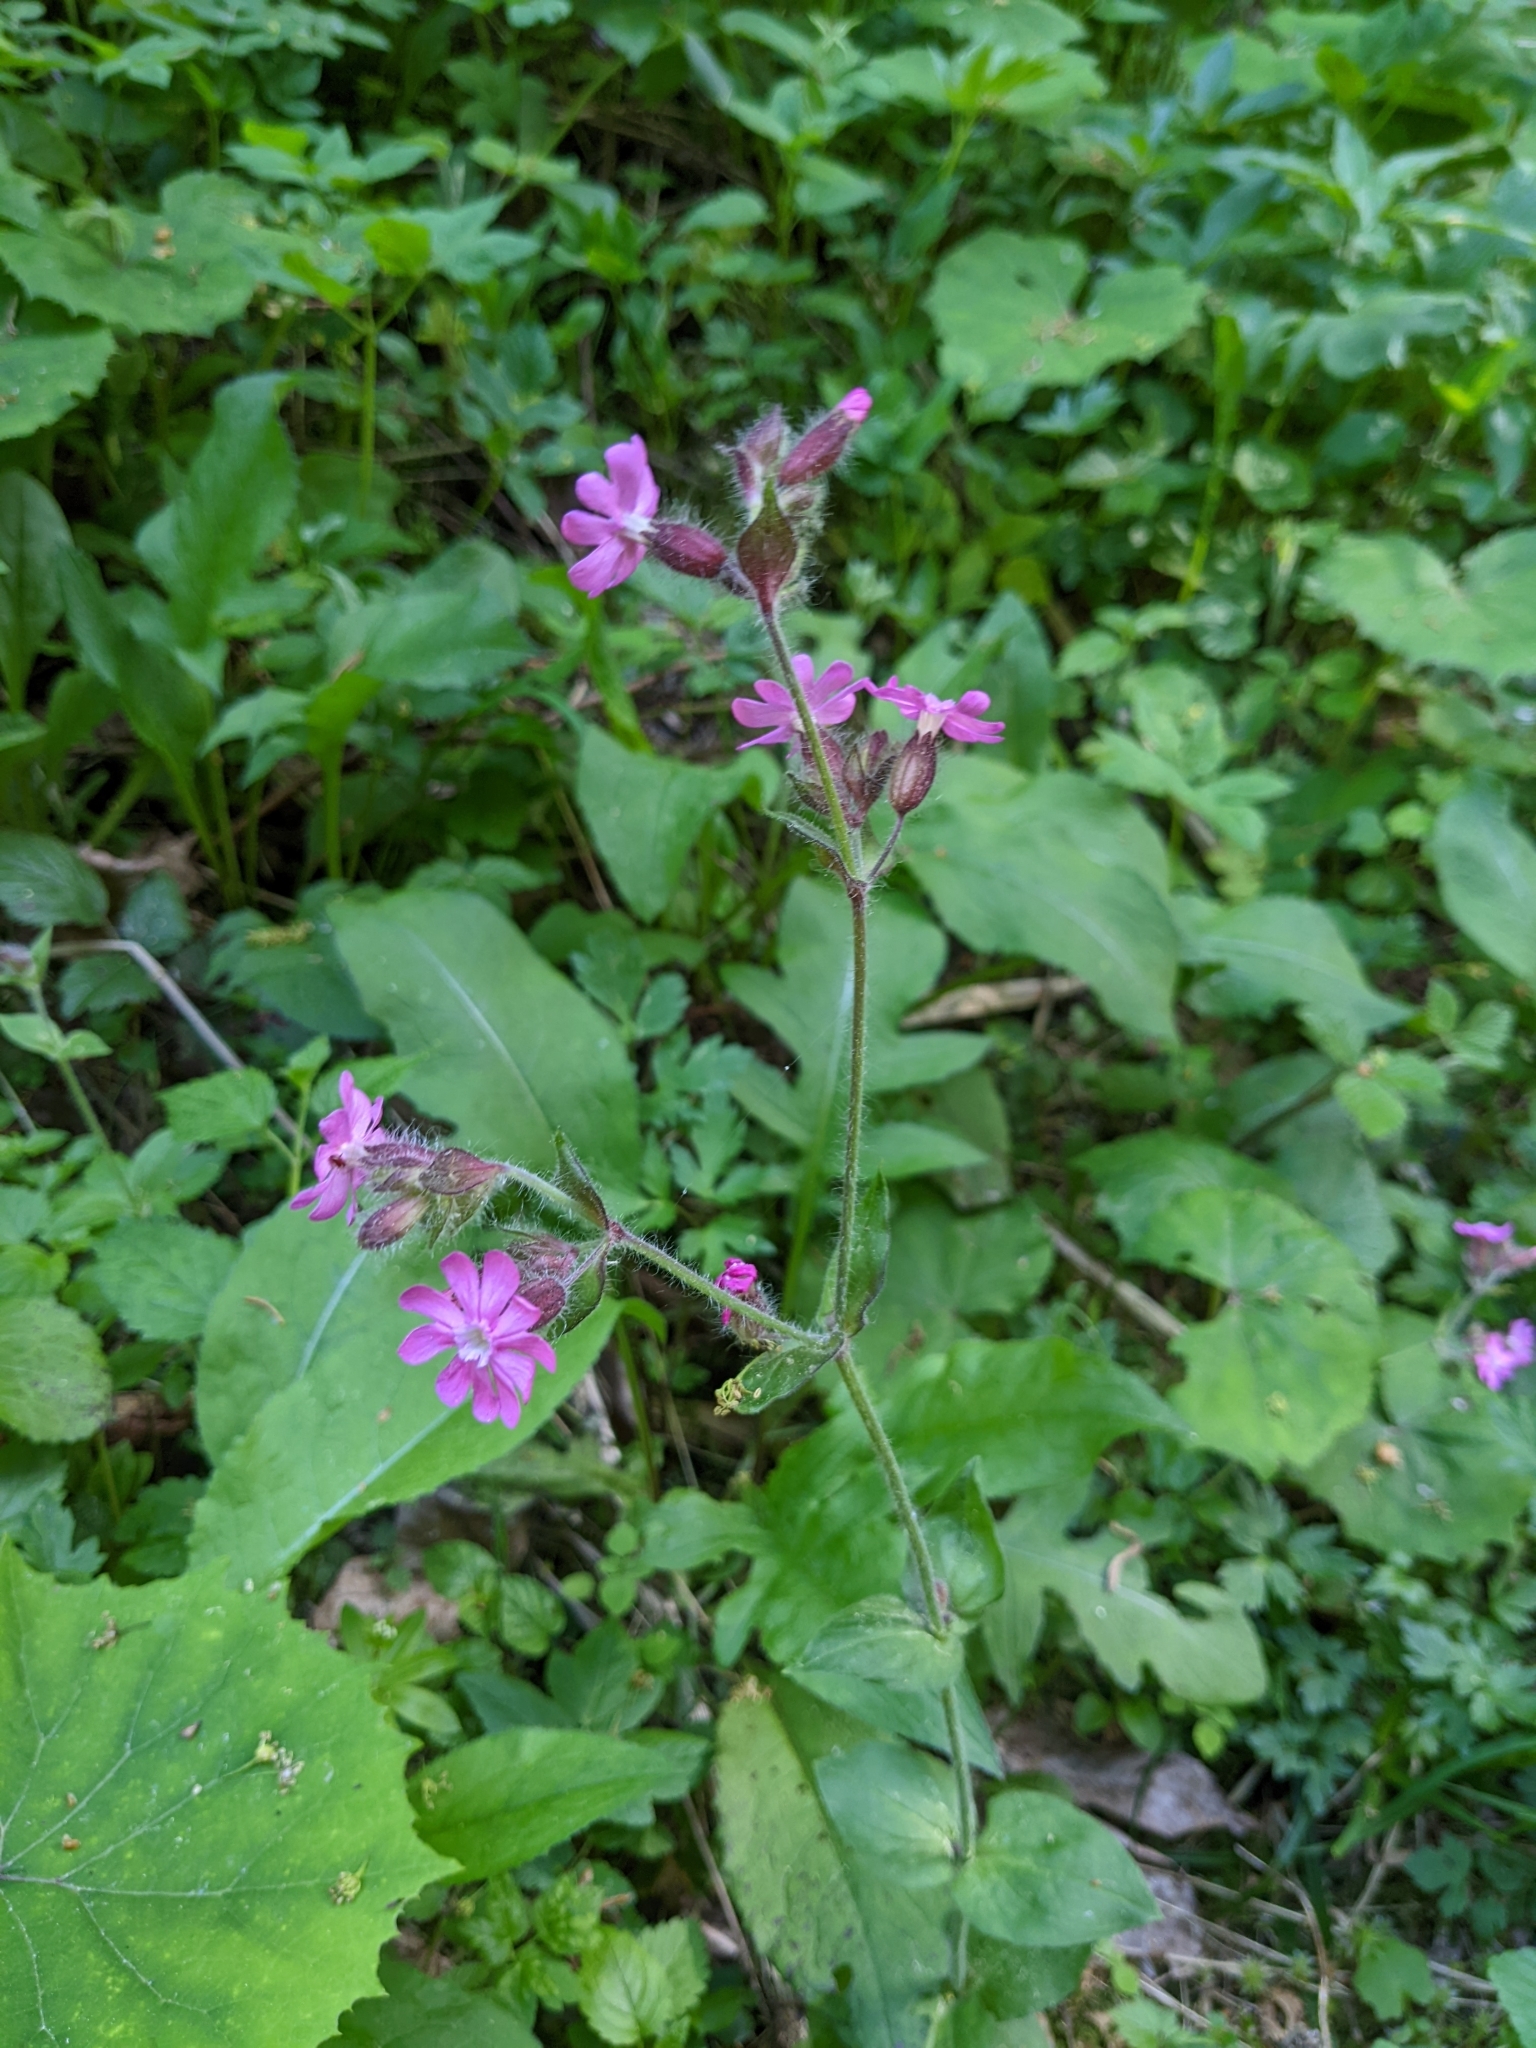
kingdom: Plantae
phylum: Tracheophyta
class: Magnoliopsida
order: Caryophyllales
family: Caryophyllaceae
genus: Silene
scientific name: Silene dioica
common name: Red campion
